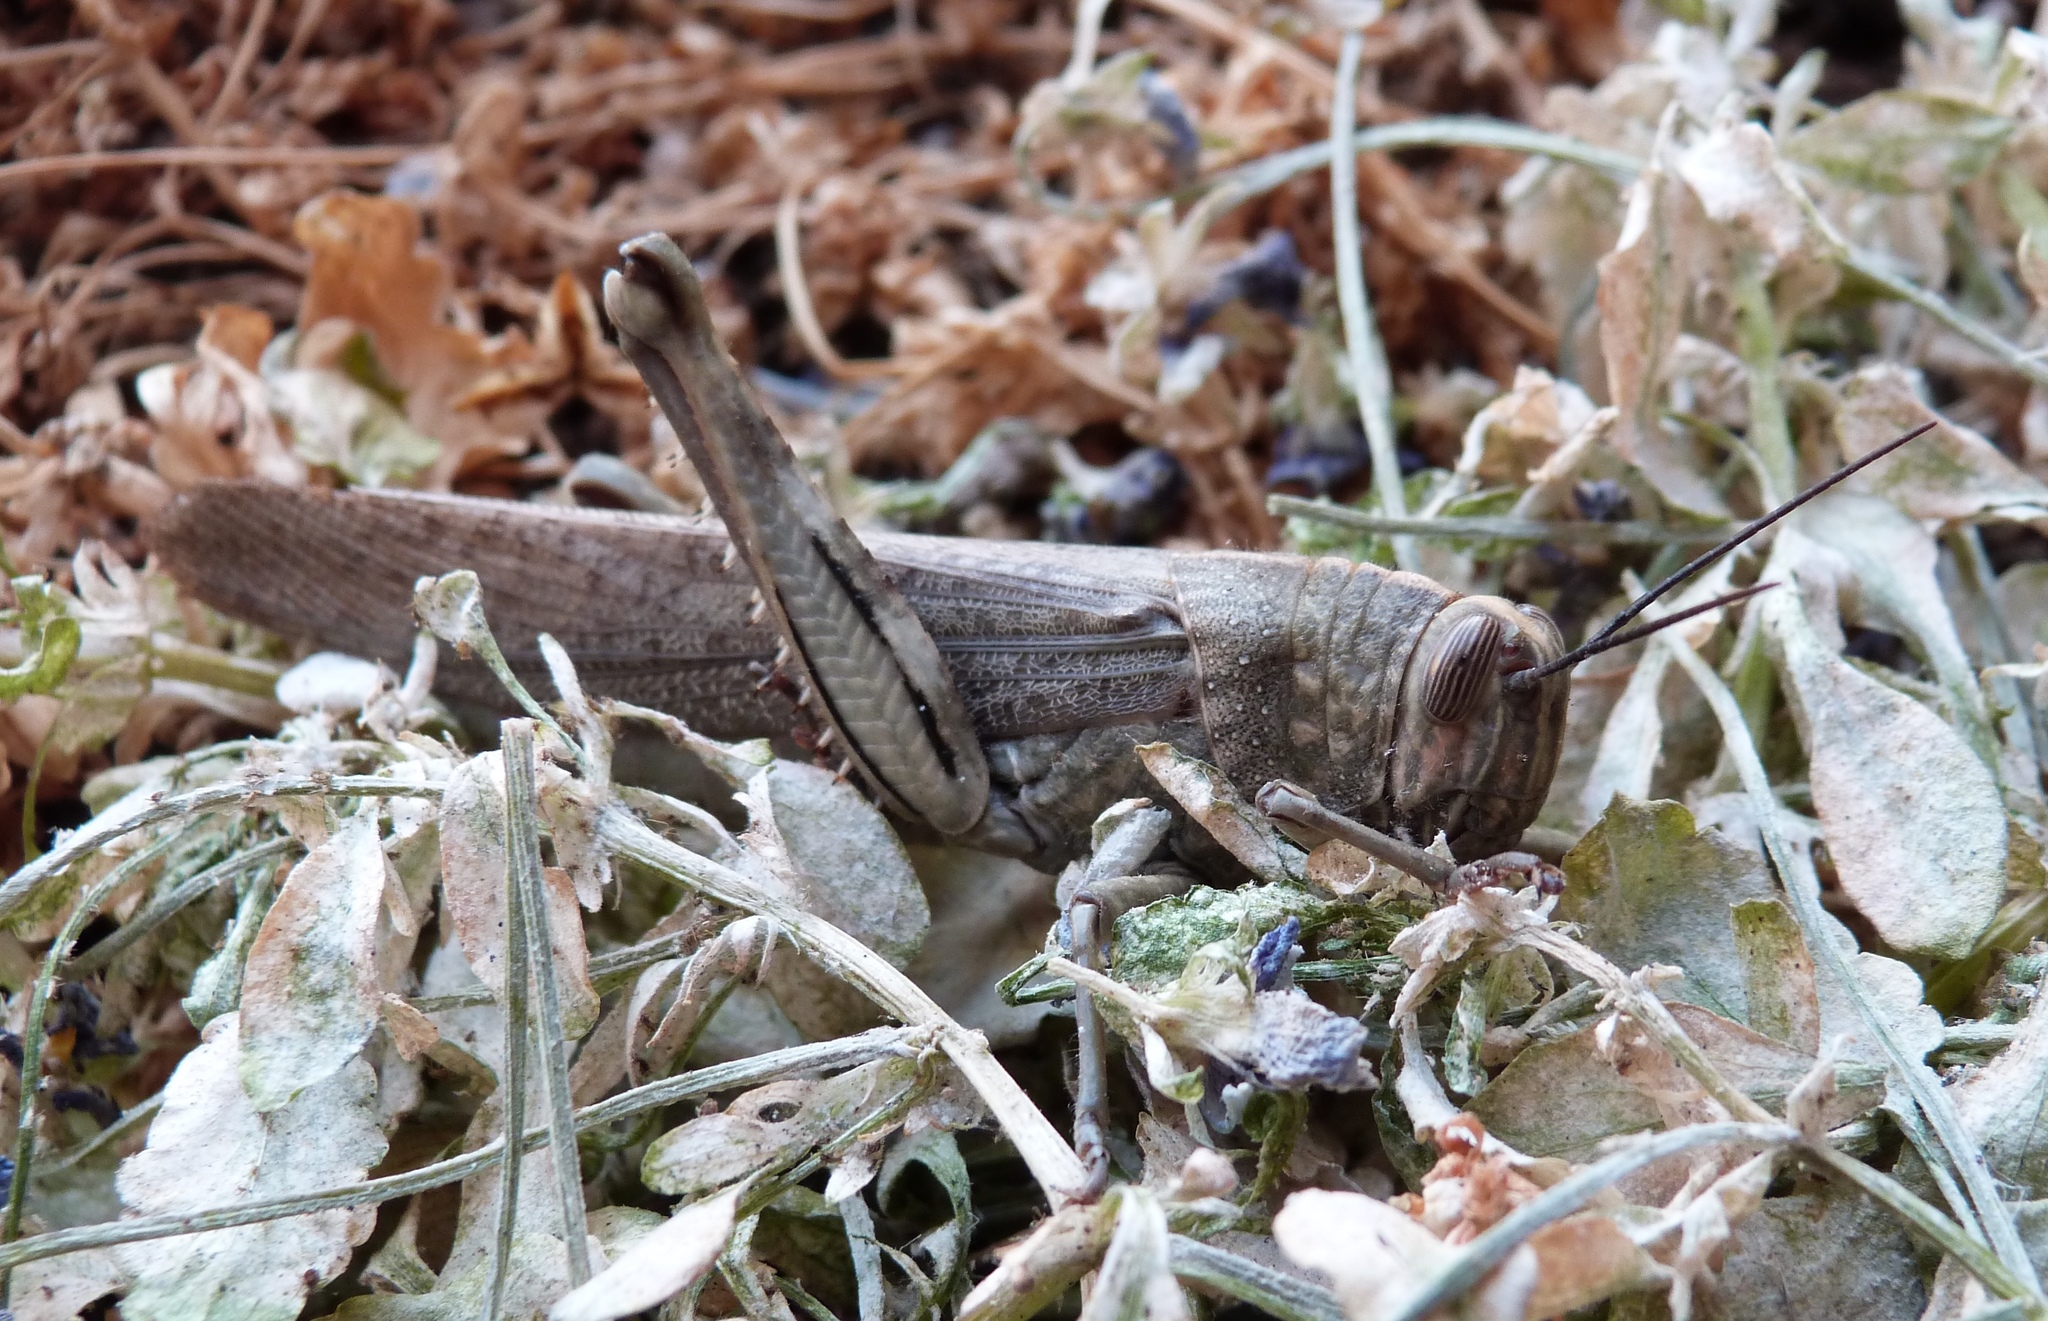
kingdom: Animalia
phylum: Arthropoda
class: Insecta
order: Orthoptera
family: Acrididae
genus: Anacridium
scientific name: Anacridium aegyptium
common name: Egyptian grasshopper
